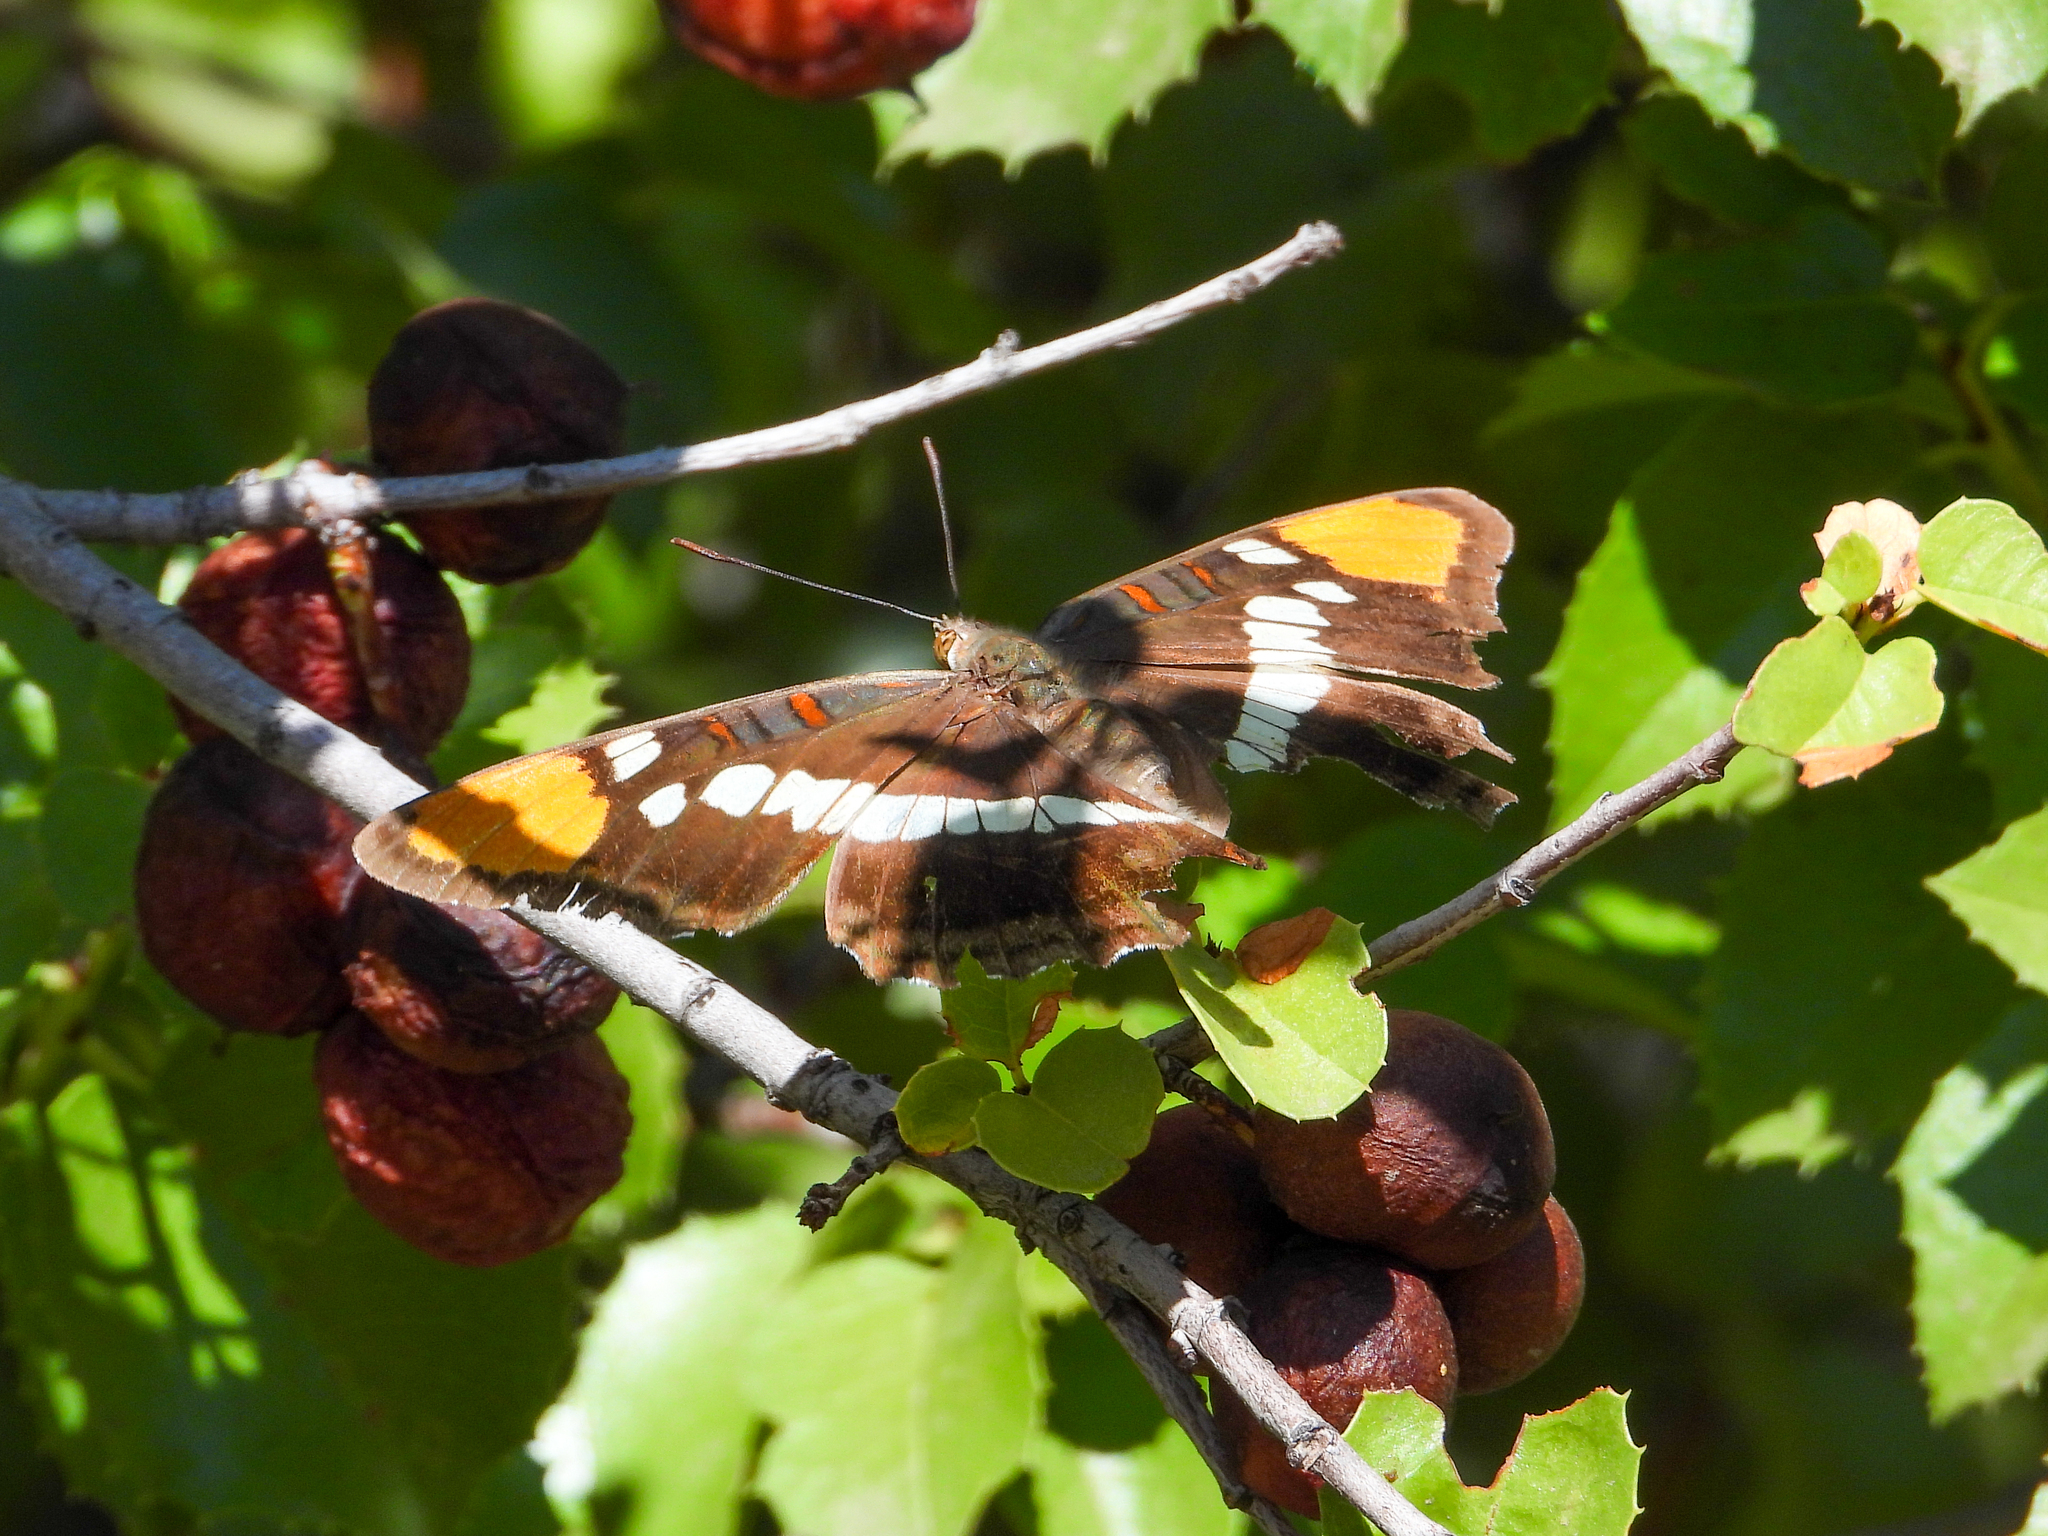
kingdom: Animalia
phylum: Arthropoda
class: Insecta
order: Lepidoptera
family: Nymphalidae
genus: Limenitis
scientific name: Limenitis bredowii
